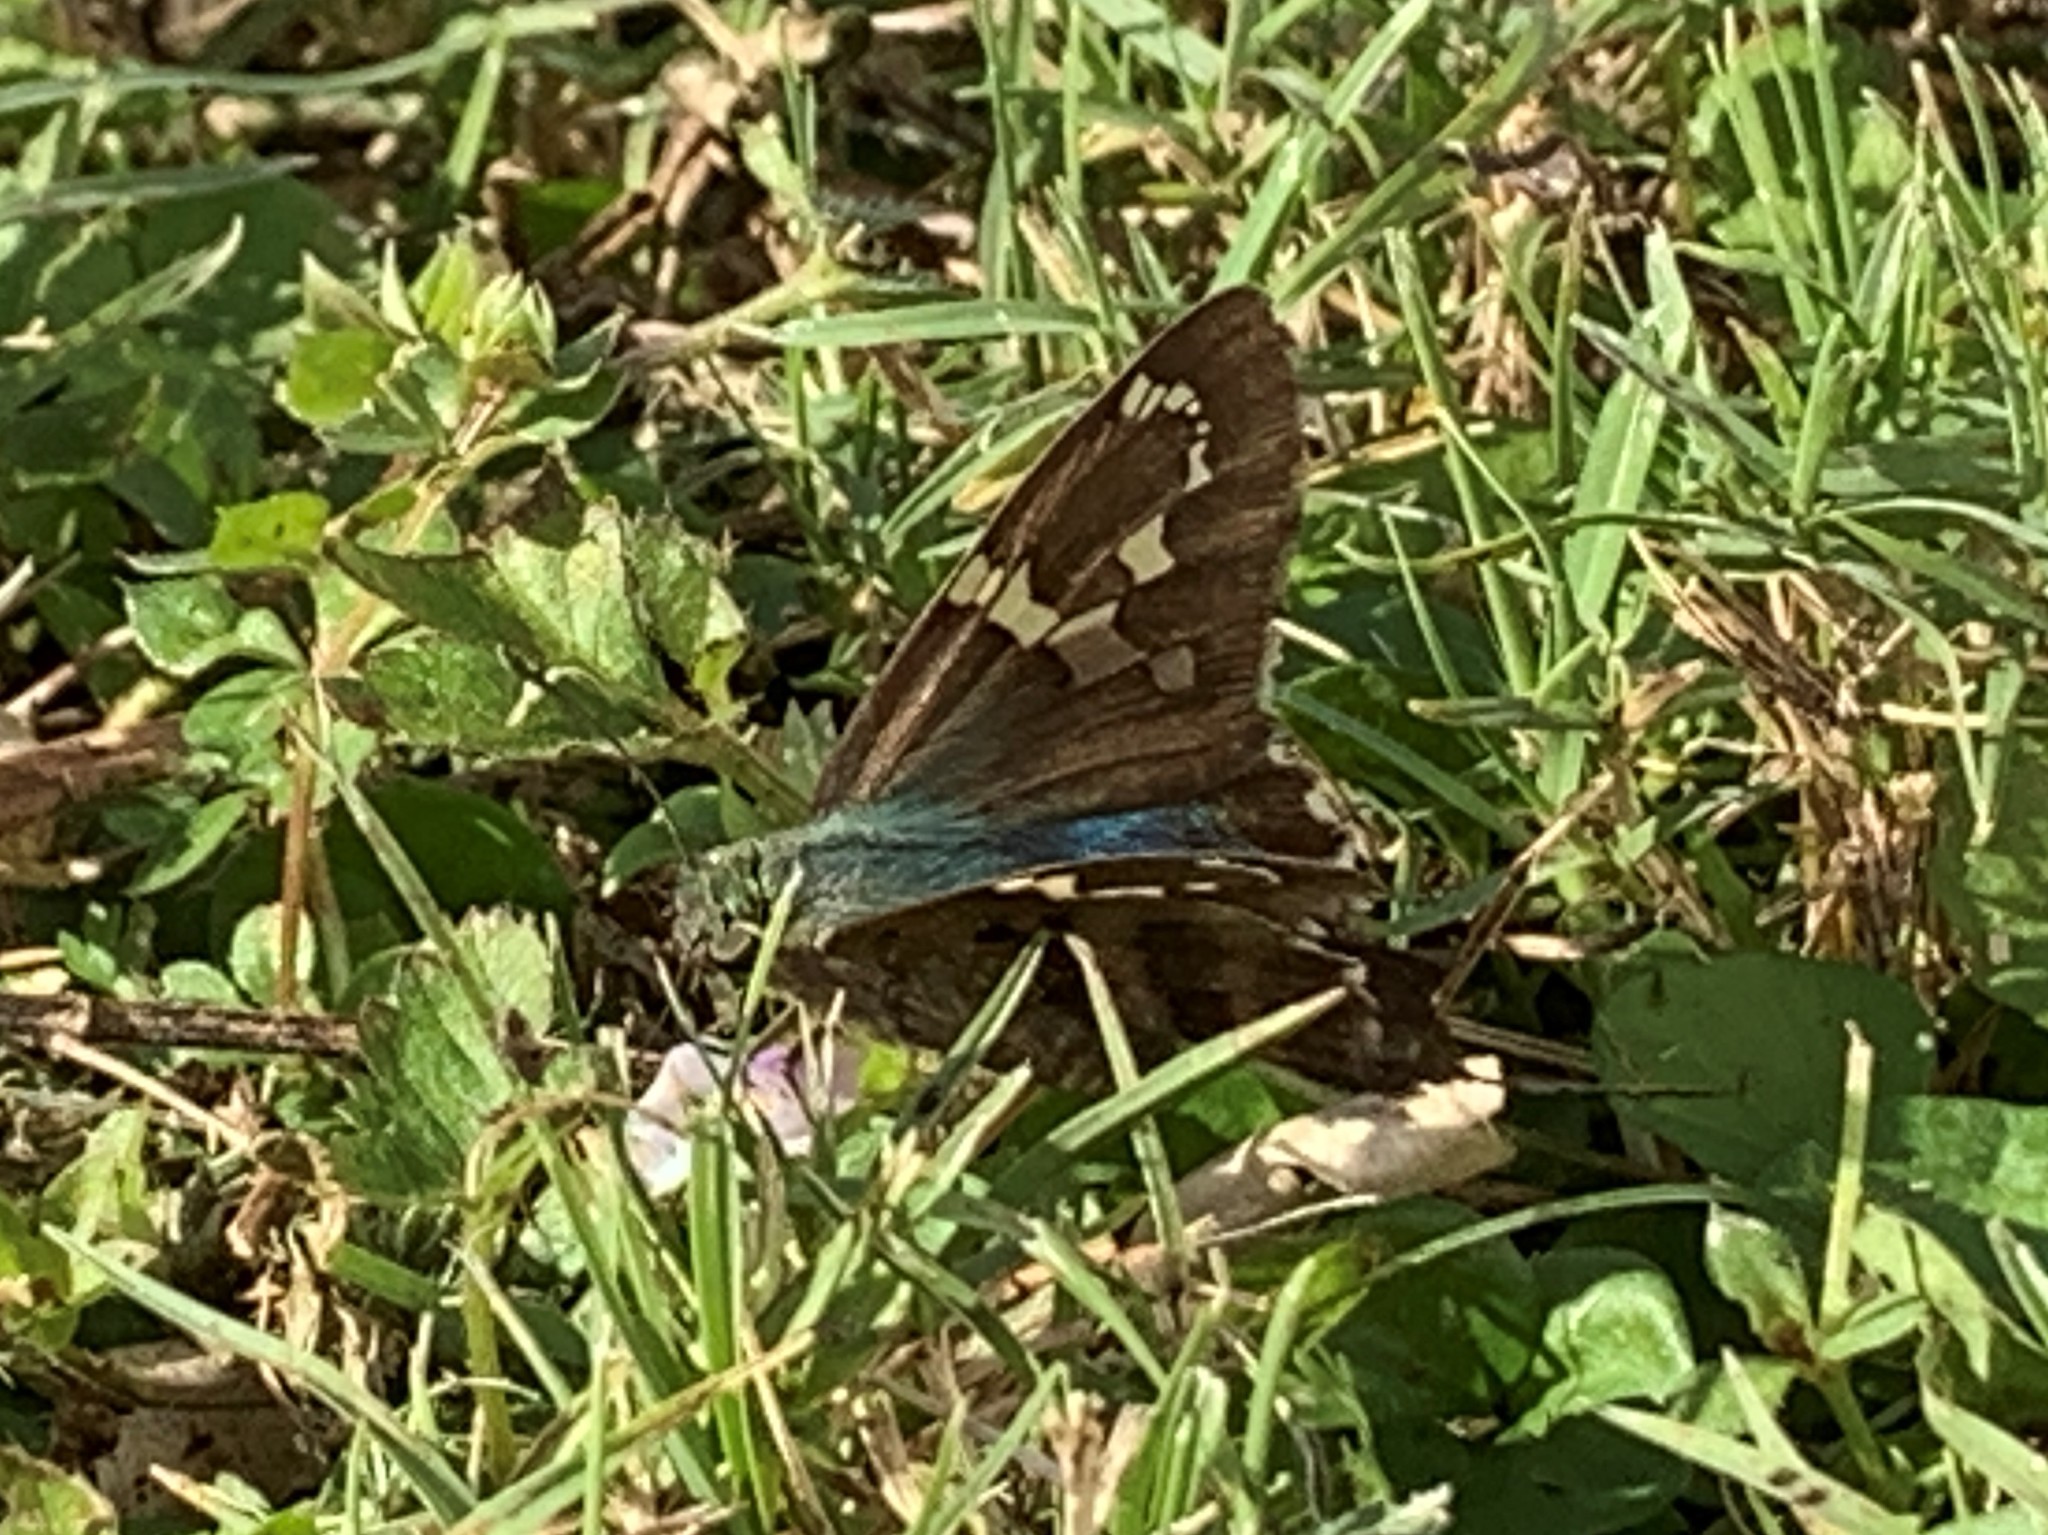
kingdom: Animalia
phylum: Arthropoda
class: Insecta
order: Lepidoptera
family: Hesperiidae
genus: Urbanus
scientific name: Urbanus proteus
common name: Long-tailed skipper
